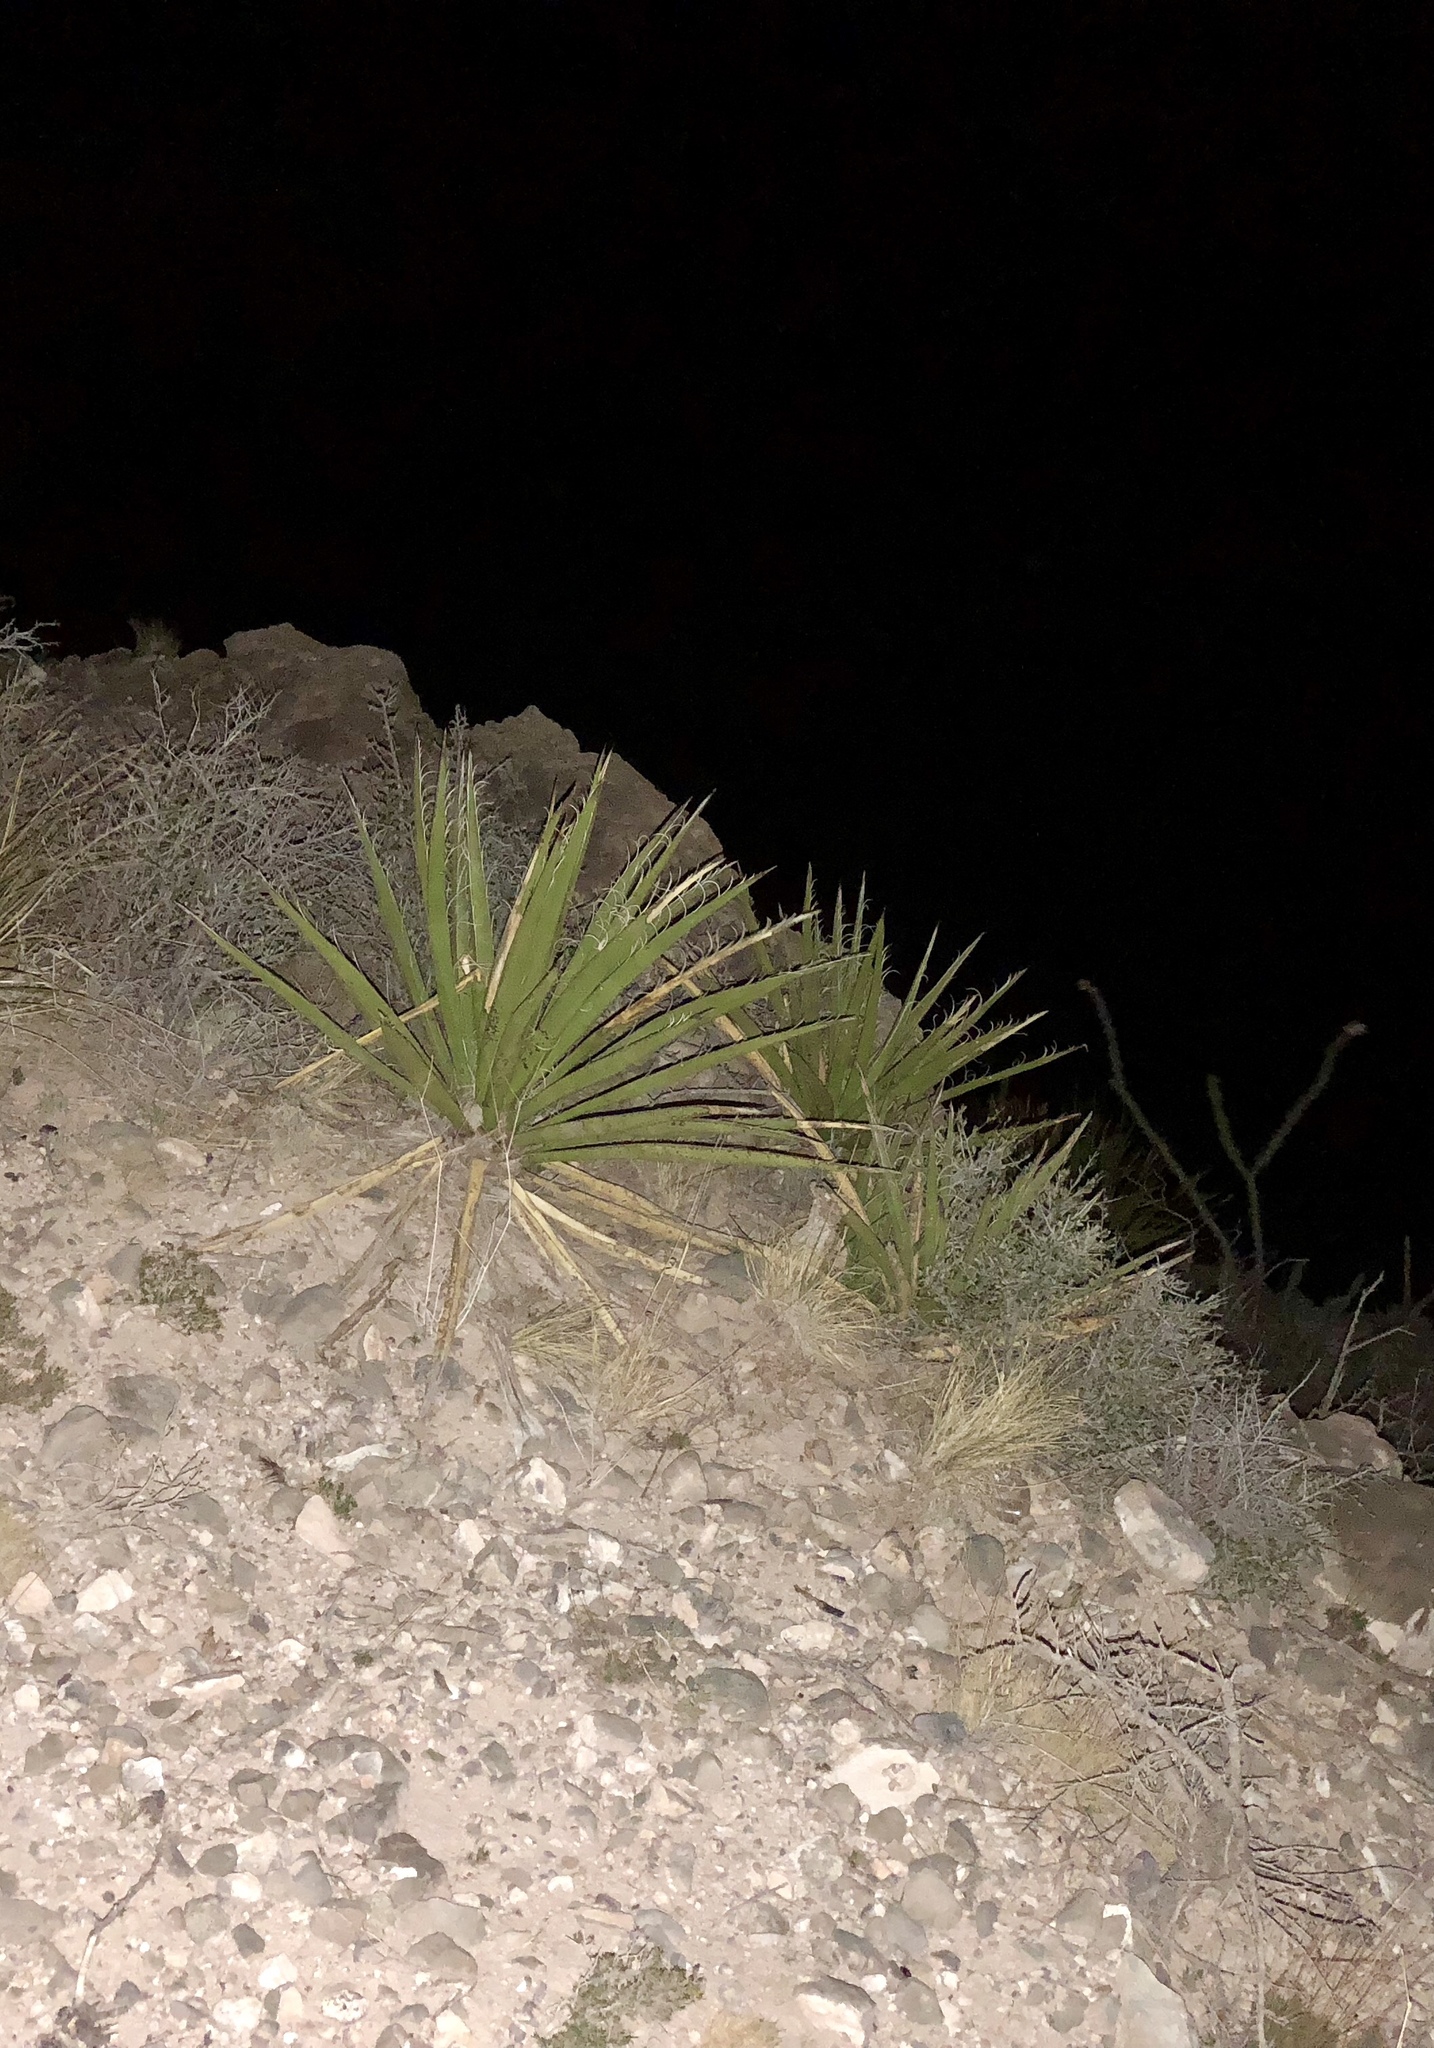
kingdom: Plantae
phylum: Tracheophyta
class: Liliopsida
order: Asparagales
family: Asparagaceae
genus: Yucca
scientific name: Yucca baccata
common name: Banana yucca
